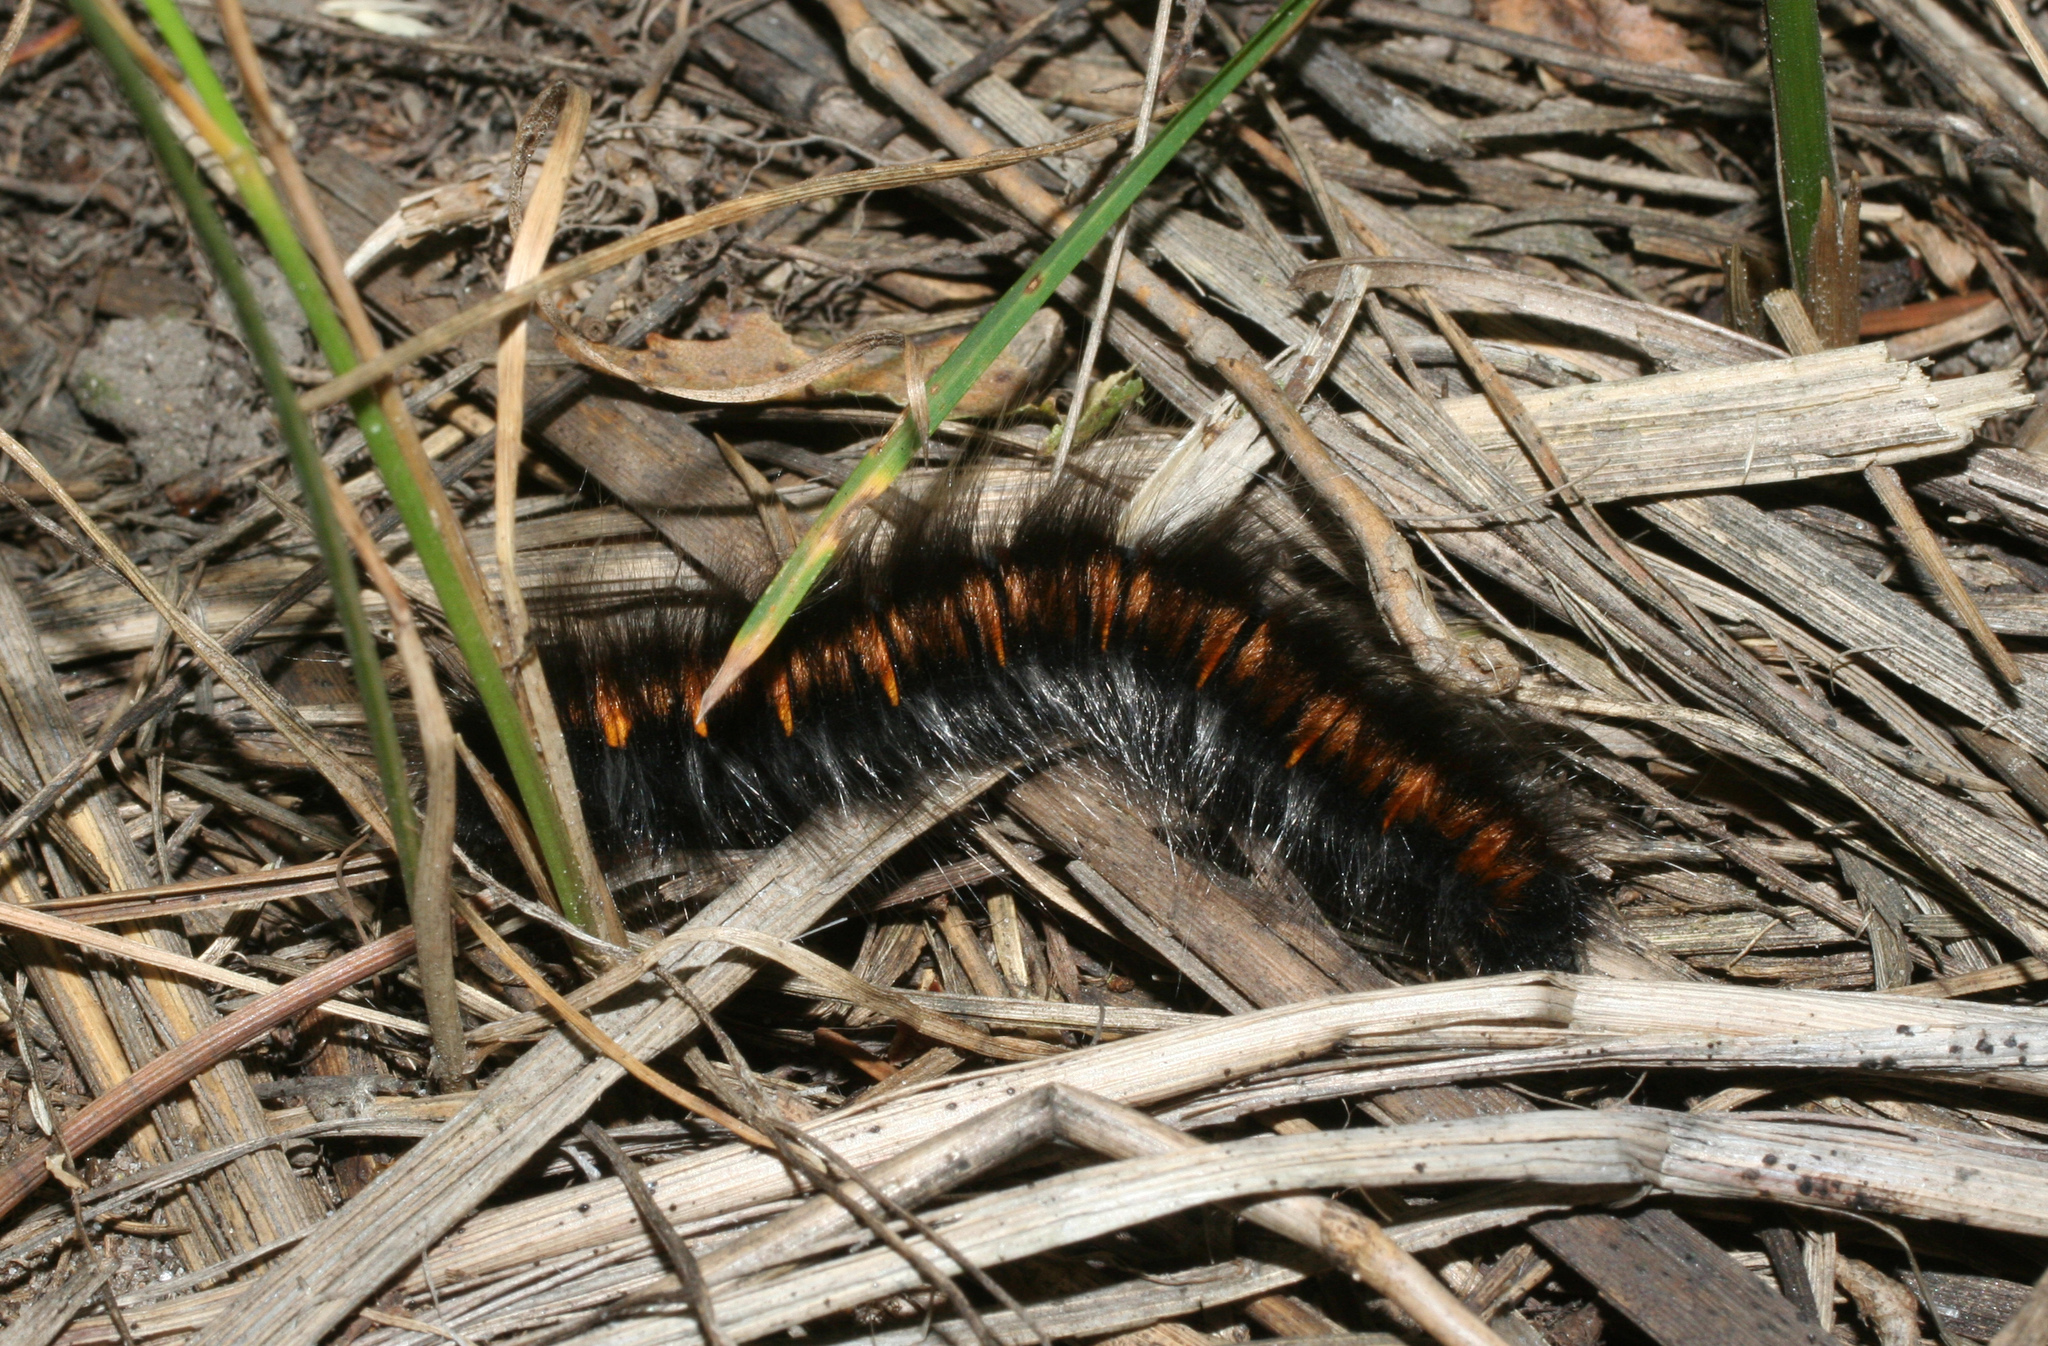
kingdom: Animalia
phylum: Arthropoda
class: Insecta
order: Lepidoptera
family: Lasiocampidae
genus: Macrothylacia
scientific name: Macrothylacia rubi
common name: Fox moth
